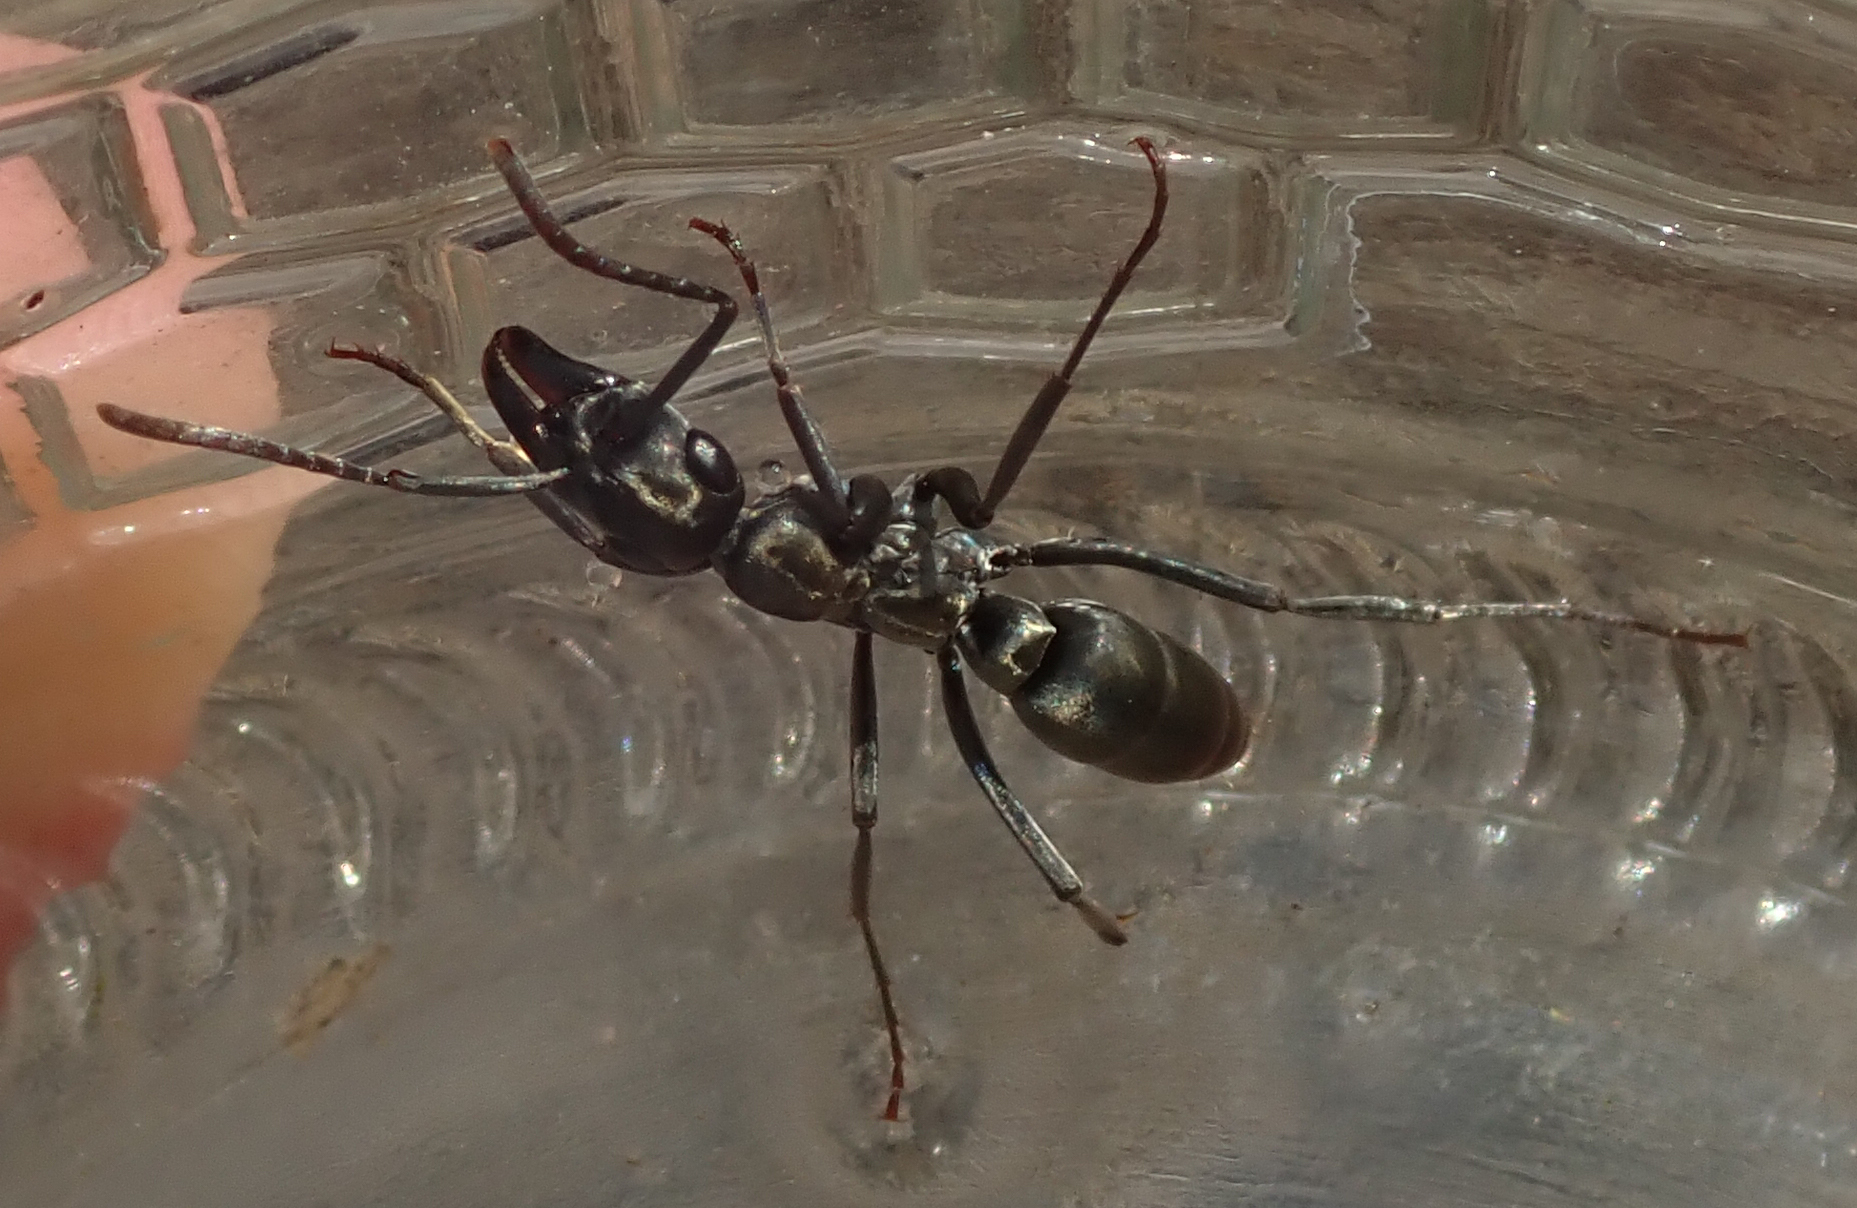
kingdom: Animalia
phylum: Arthropoda
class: Insecta
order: Hymenoptera
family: Formicidae
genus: Bothroponera
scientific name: Bothroponera berthoudi
